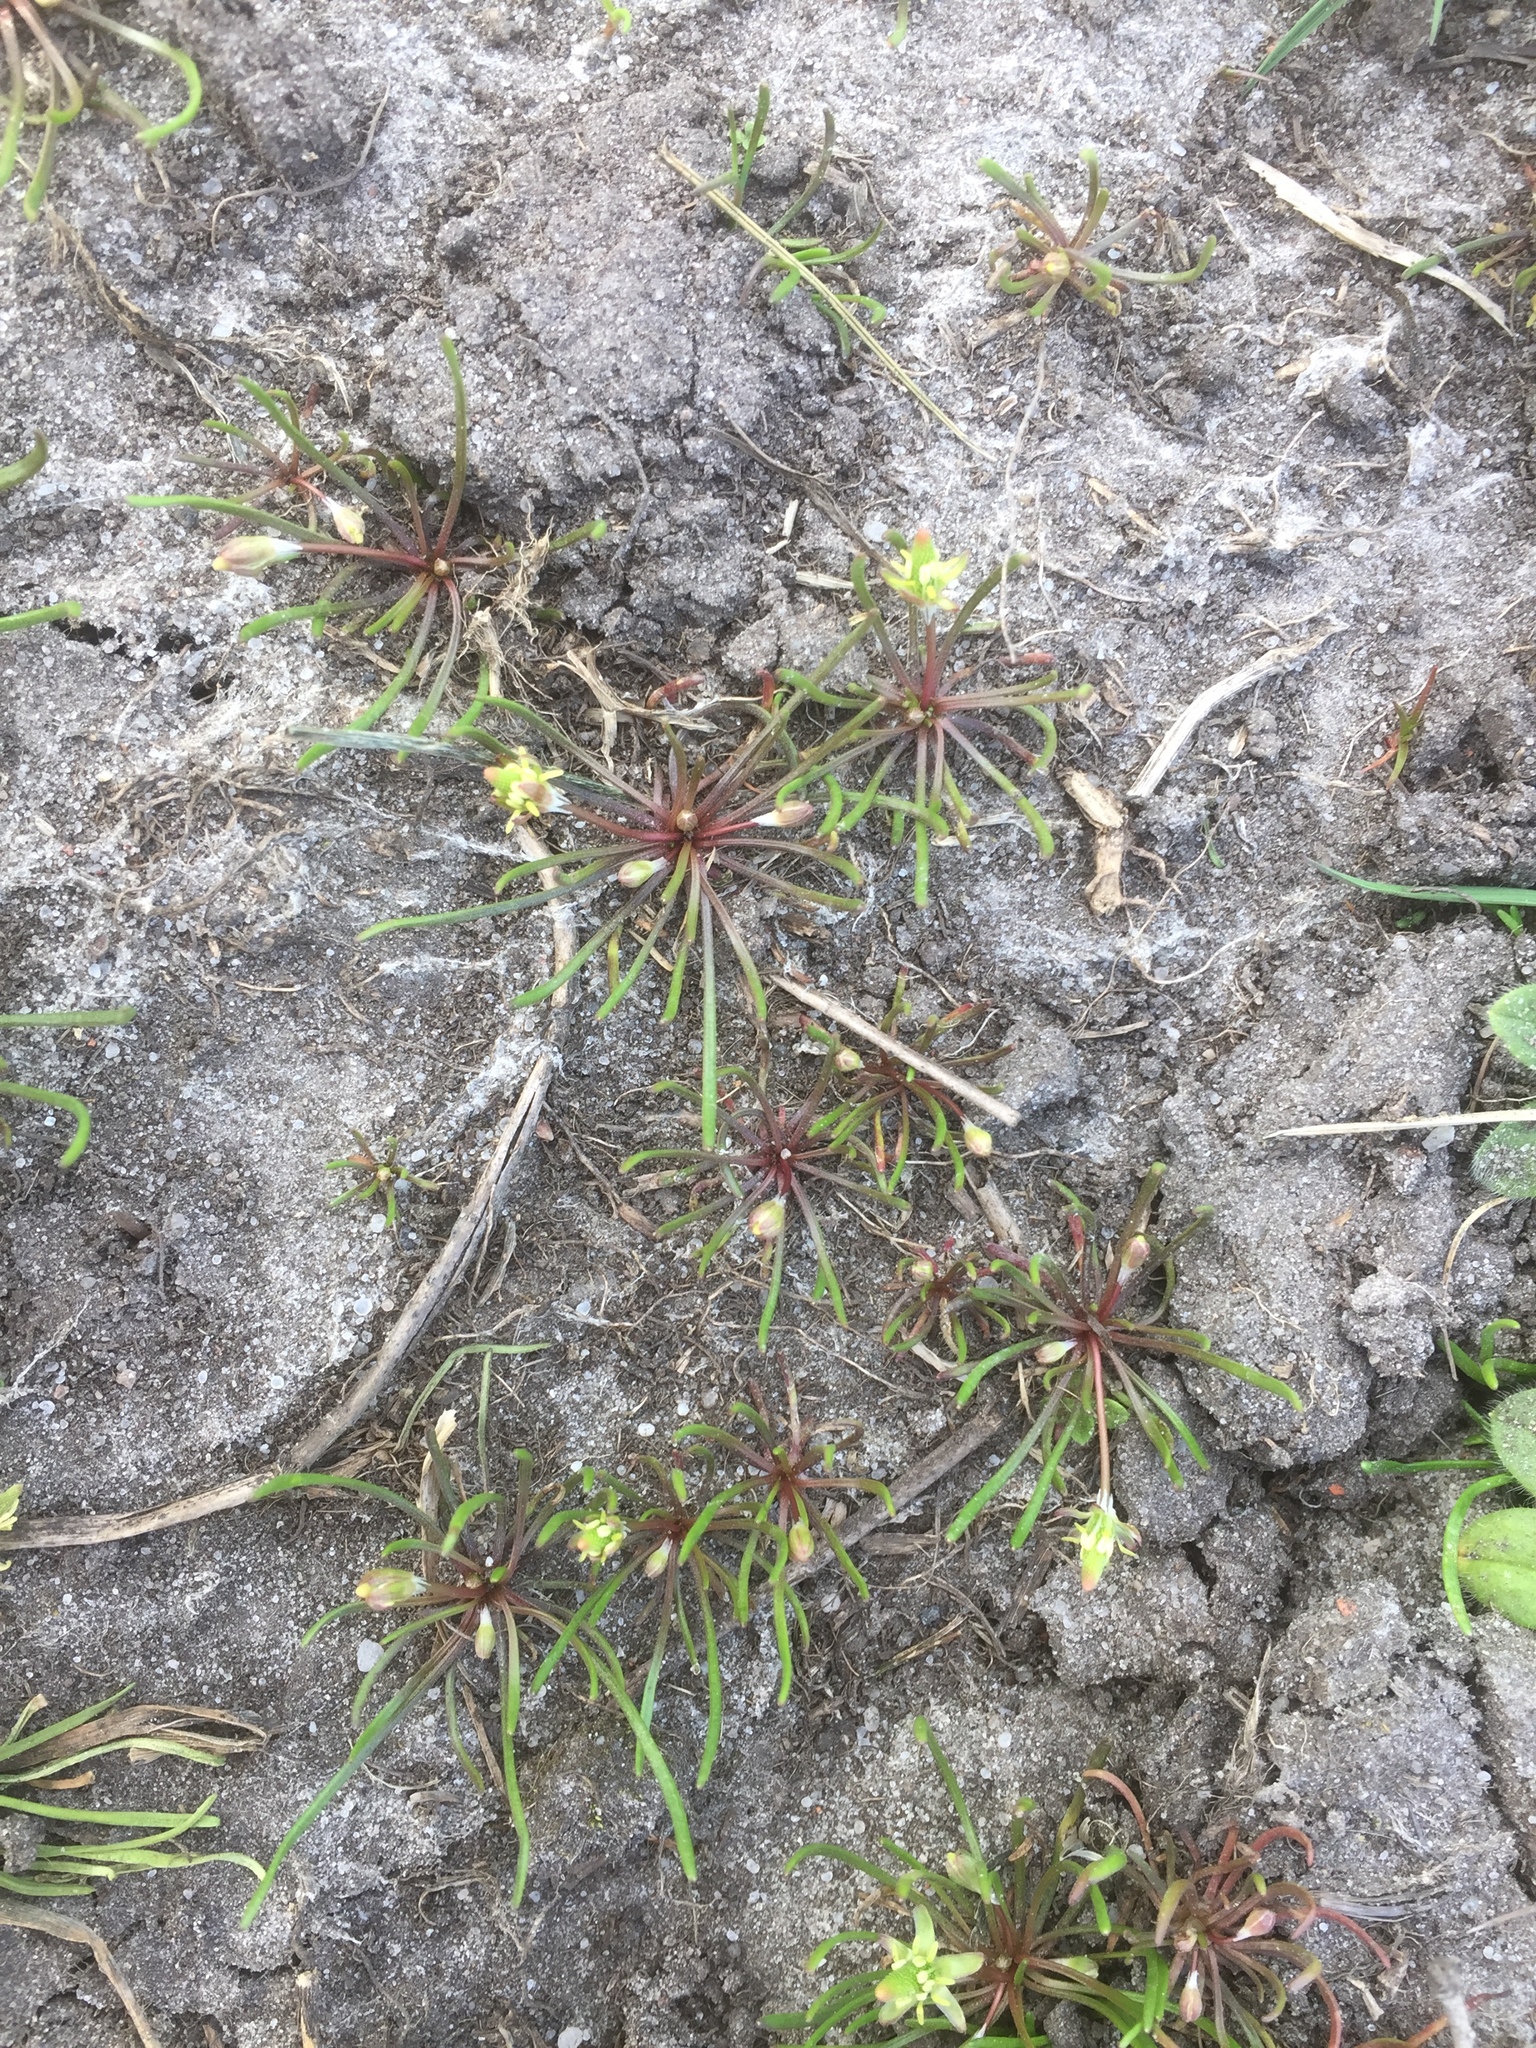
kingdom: Plantae
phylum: Tracheophyta
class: Magnoliopsida
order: Ranunculales
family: Ranunculaceae
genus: Myosurus
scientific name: Myosurus minimus
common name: Mousetail
